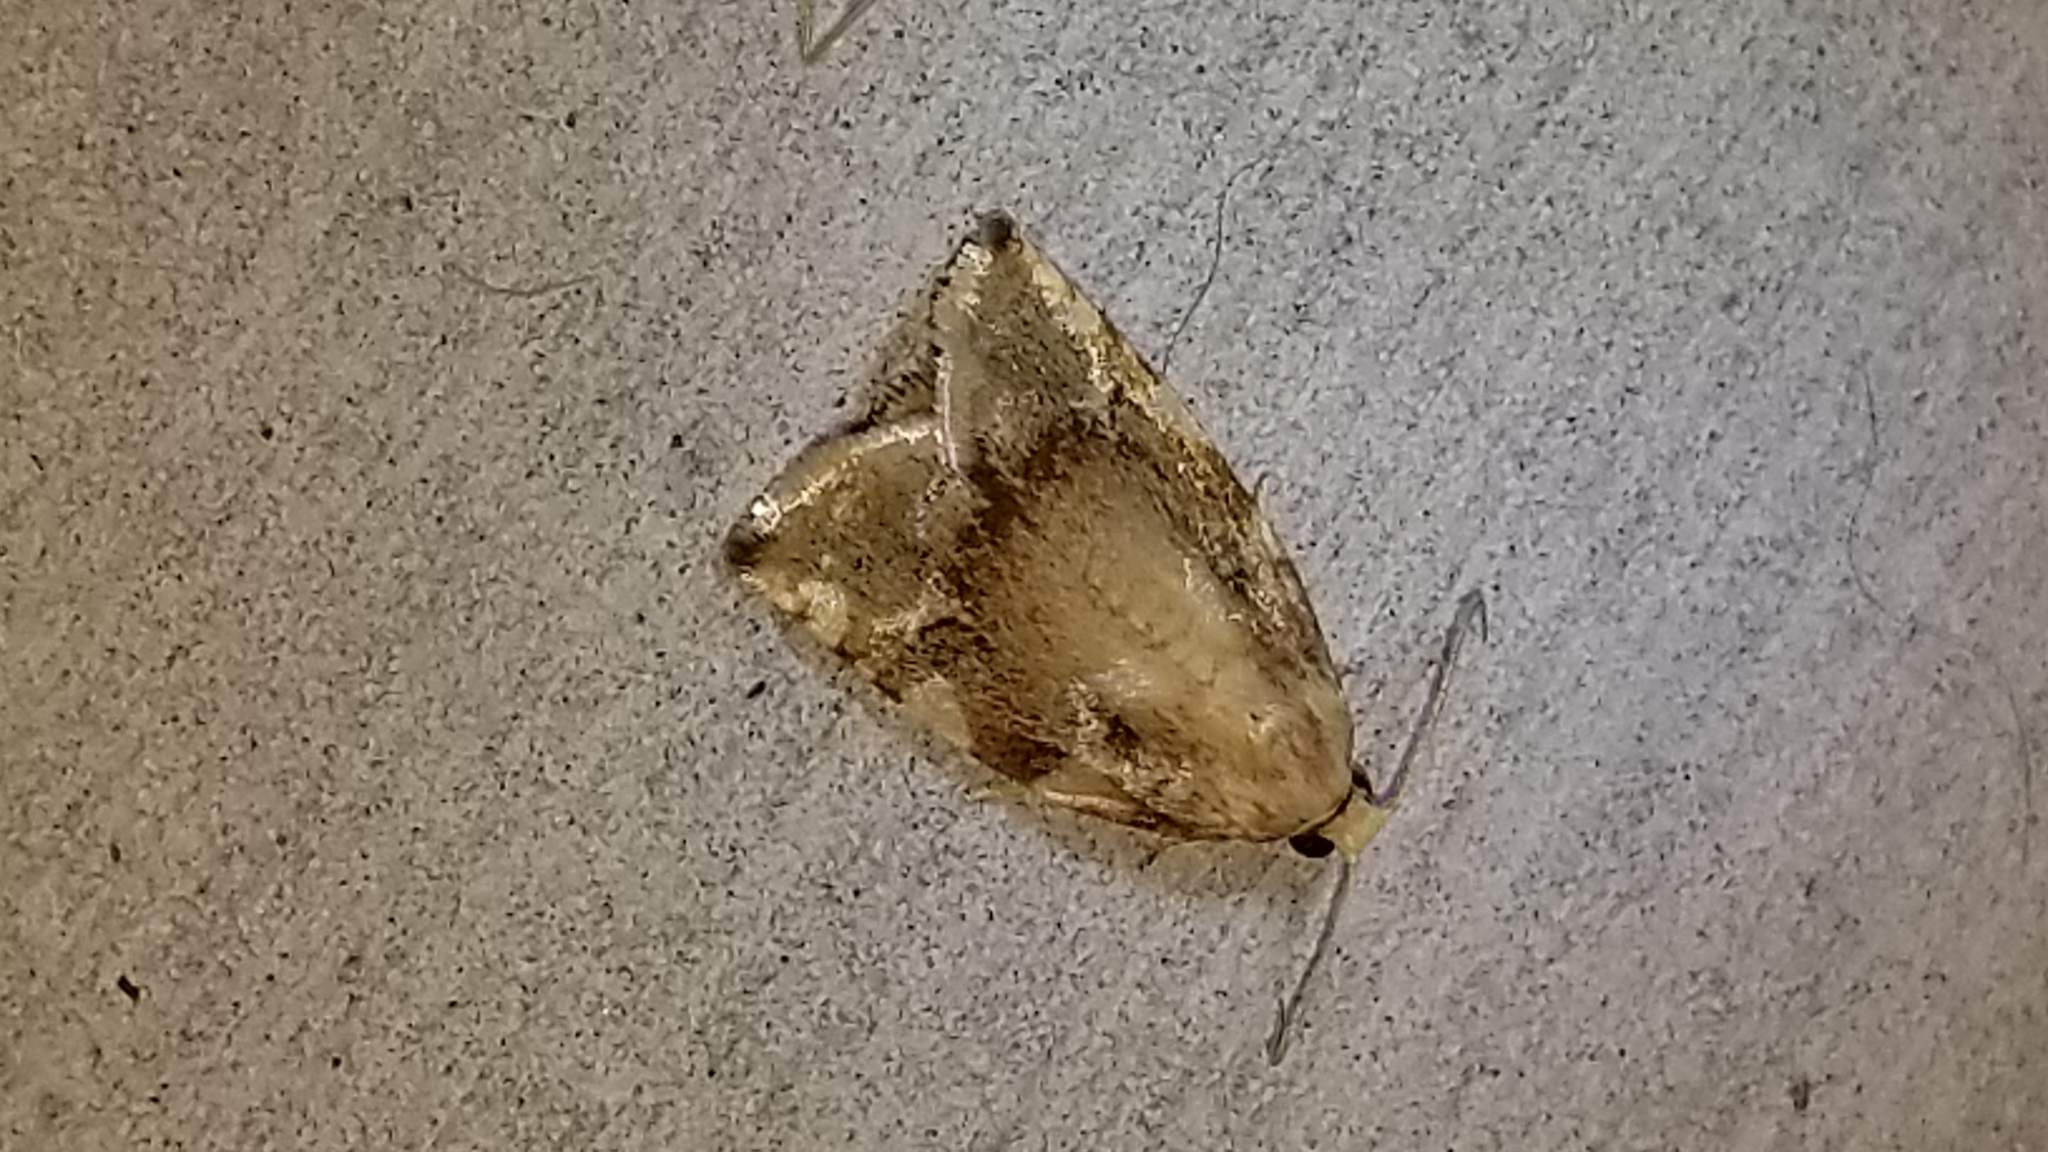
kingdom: Animalia
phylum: Arthropoda
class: Insecta
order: Lepidoptera
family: Tortricidae
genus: Archips
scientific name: Archips semiferanus
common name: Oak leafroller
